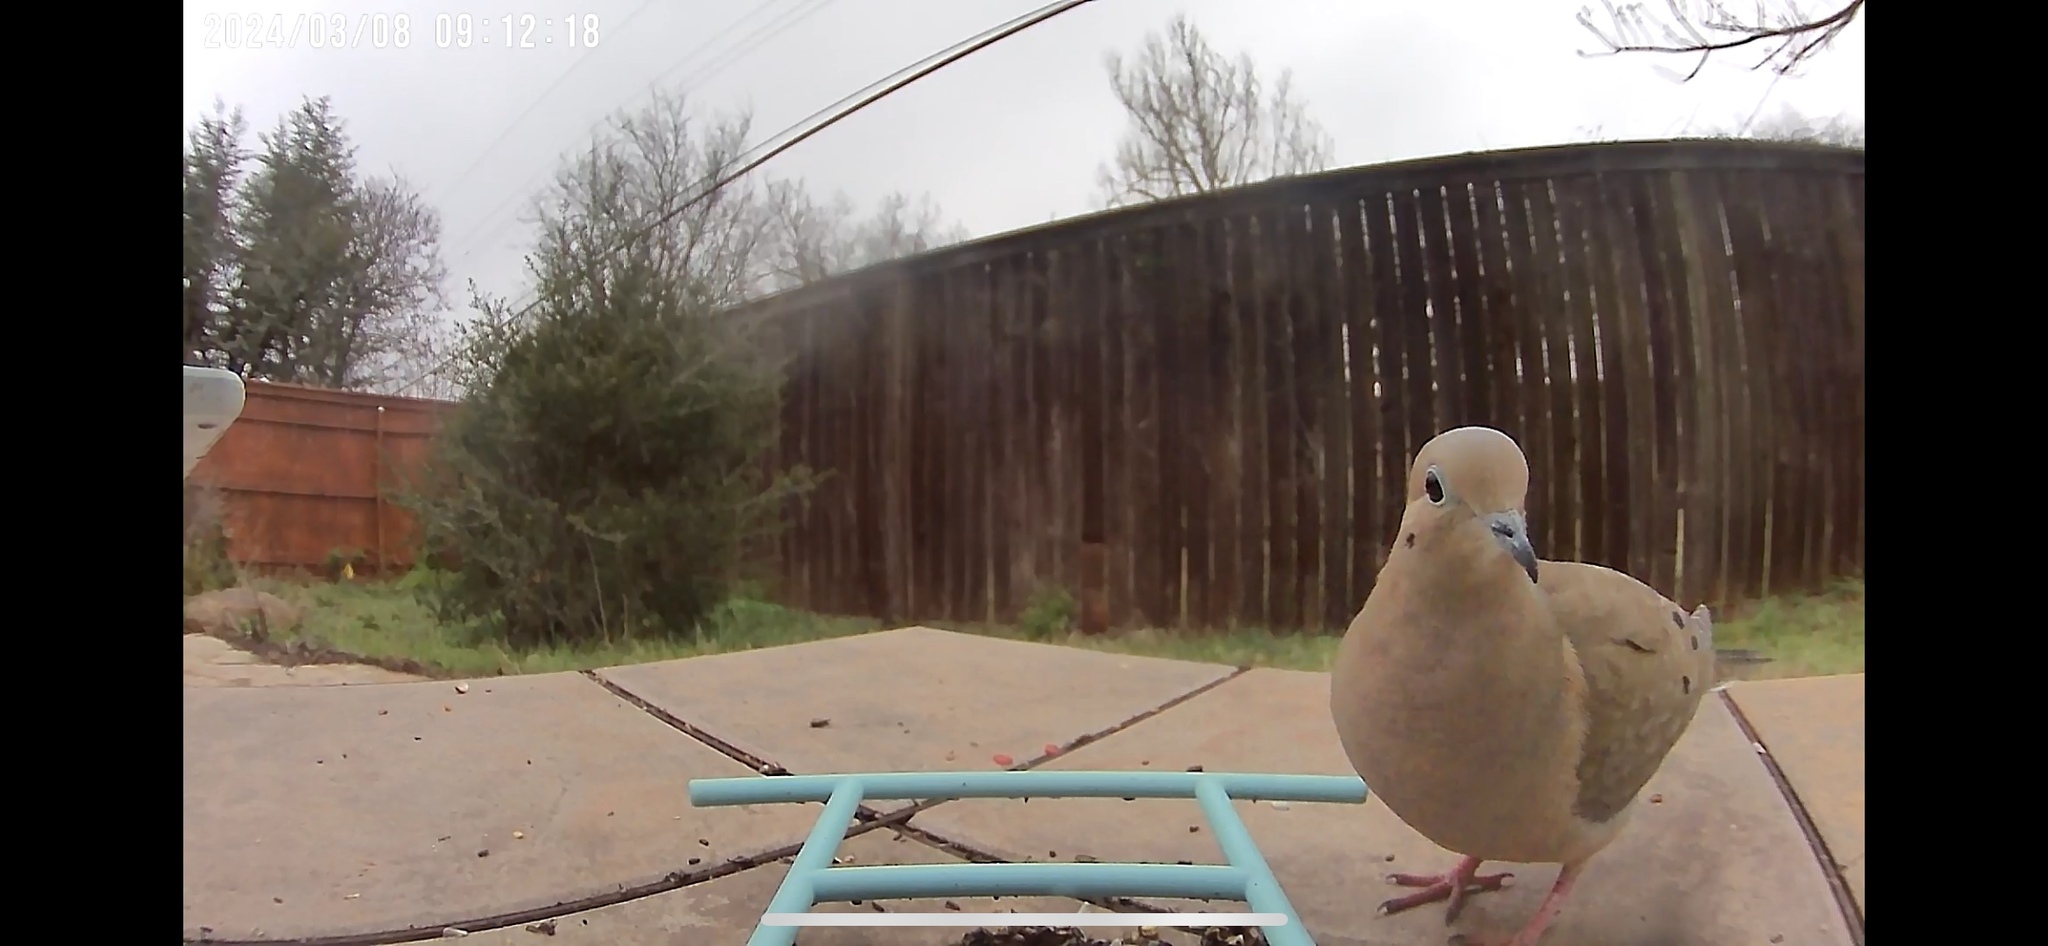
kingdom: Animalia
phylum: Chordata
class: Aves
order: Columbiformes
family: Columbidae
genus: Zenaida
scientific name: Zenaida macroura
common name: Mourning dove
